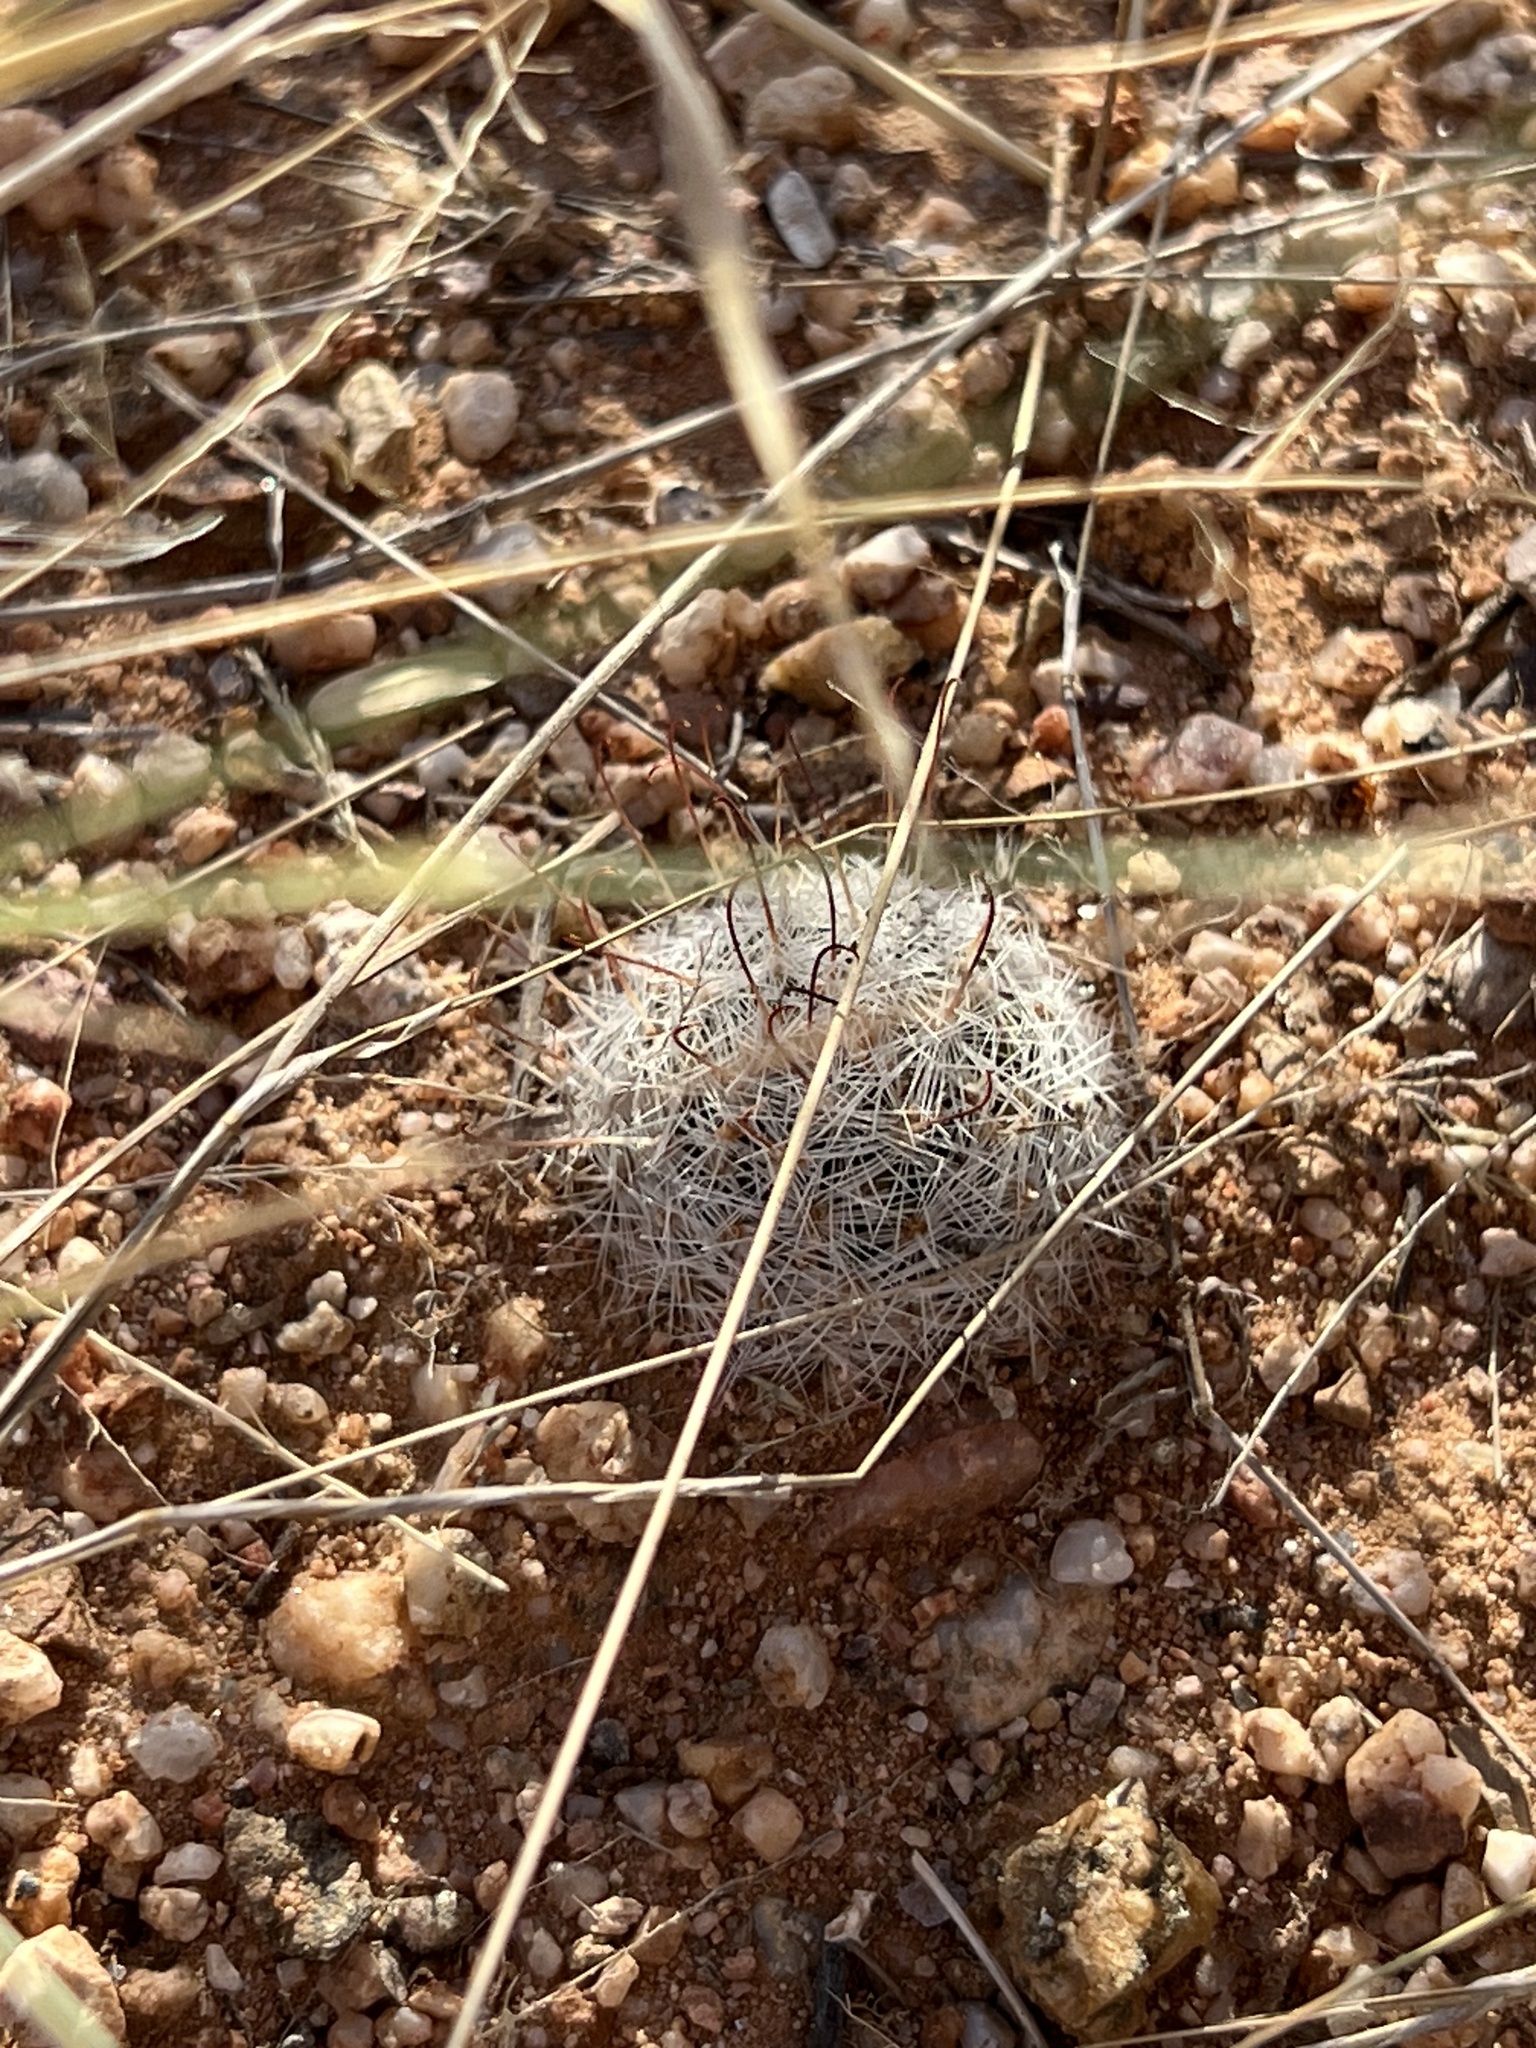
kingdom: Plantae
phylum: Tracheophyta
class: Magnoliopsida
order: Caryophyllales
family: Cactaceae
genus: Cochemiea
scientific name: Cochemiea grahamii
